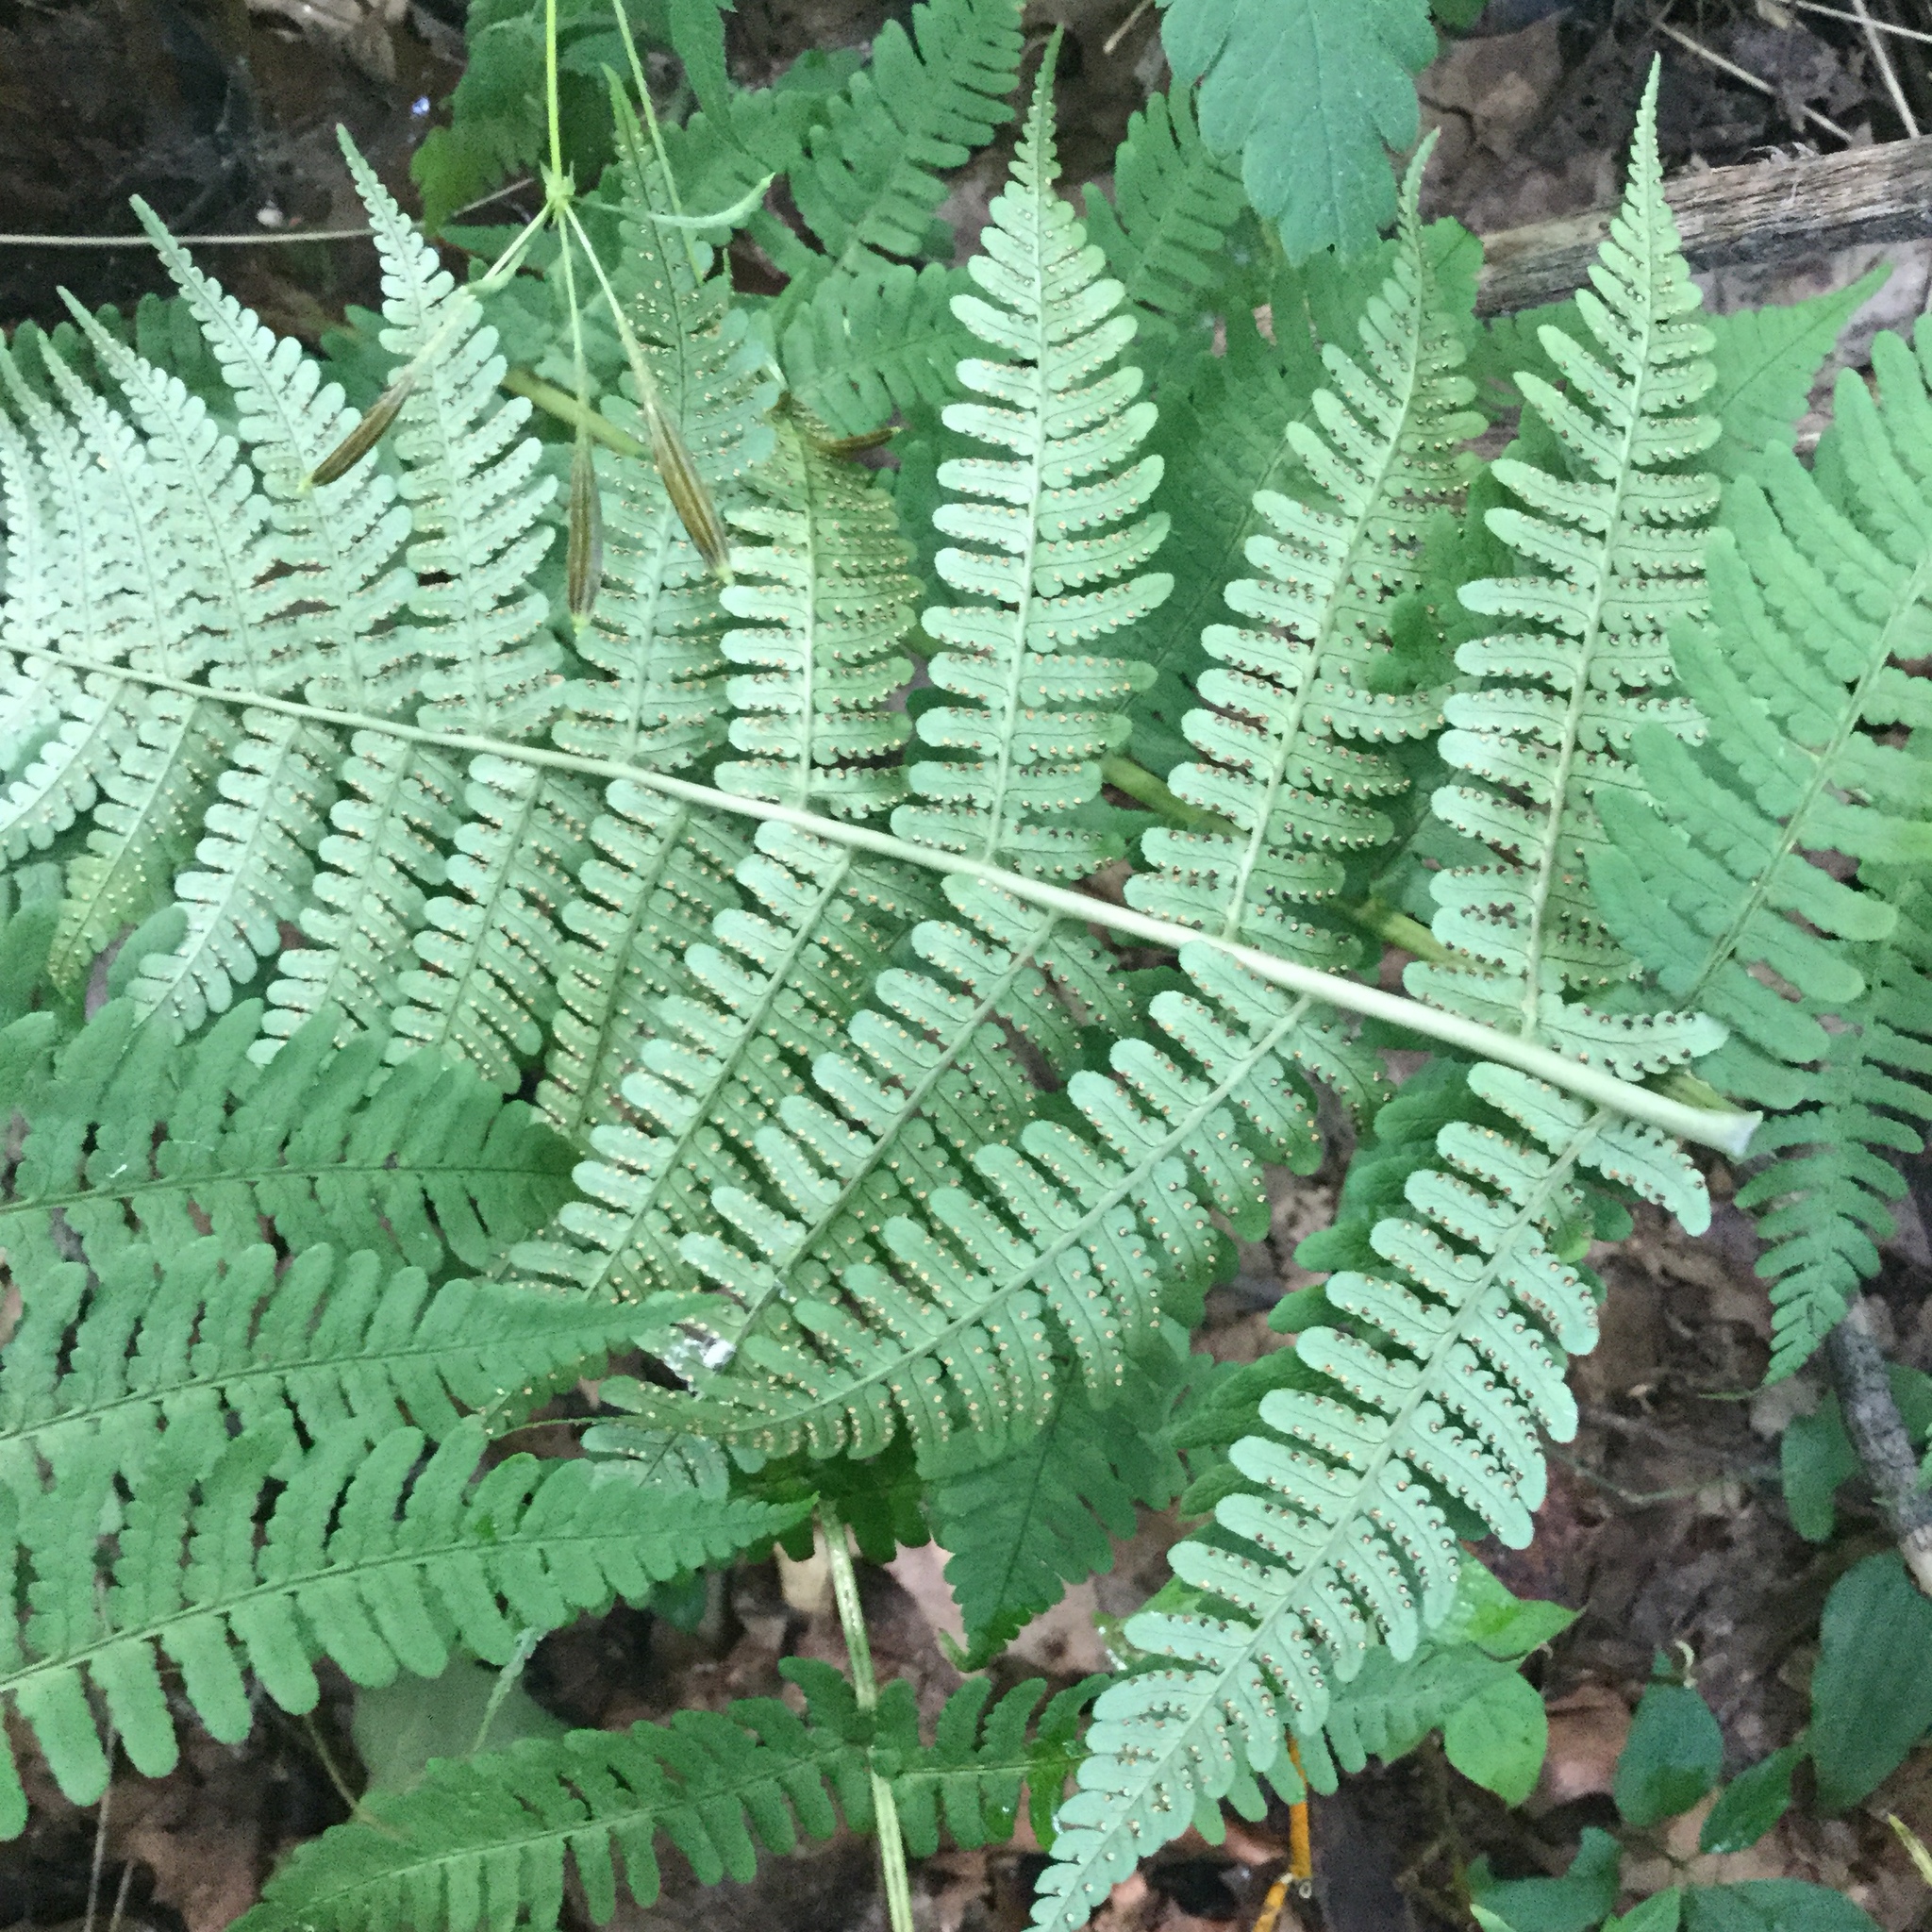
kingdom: Plantae
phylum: Tracheophyta
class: Polypodiopsida
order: Polypodiales
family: Dryopteridaceae
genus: Dryopteris
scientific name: Dryopteris marginalis
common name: Marginal wood fern
